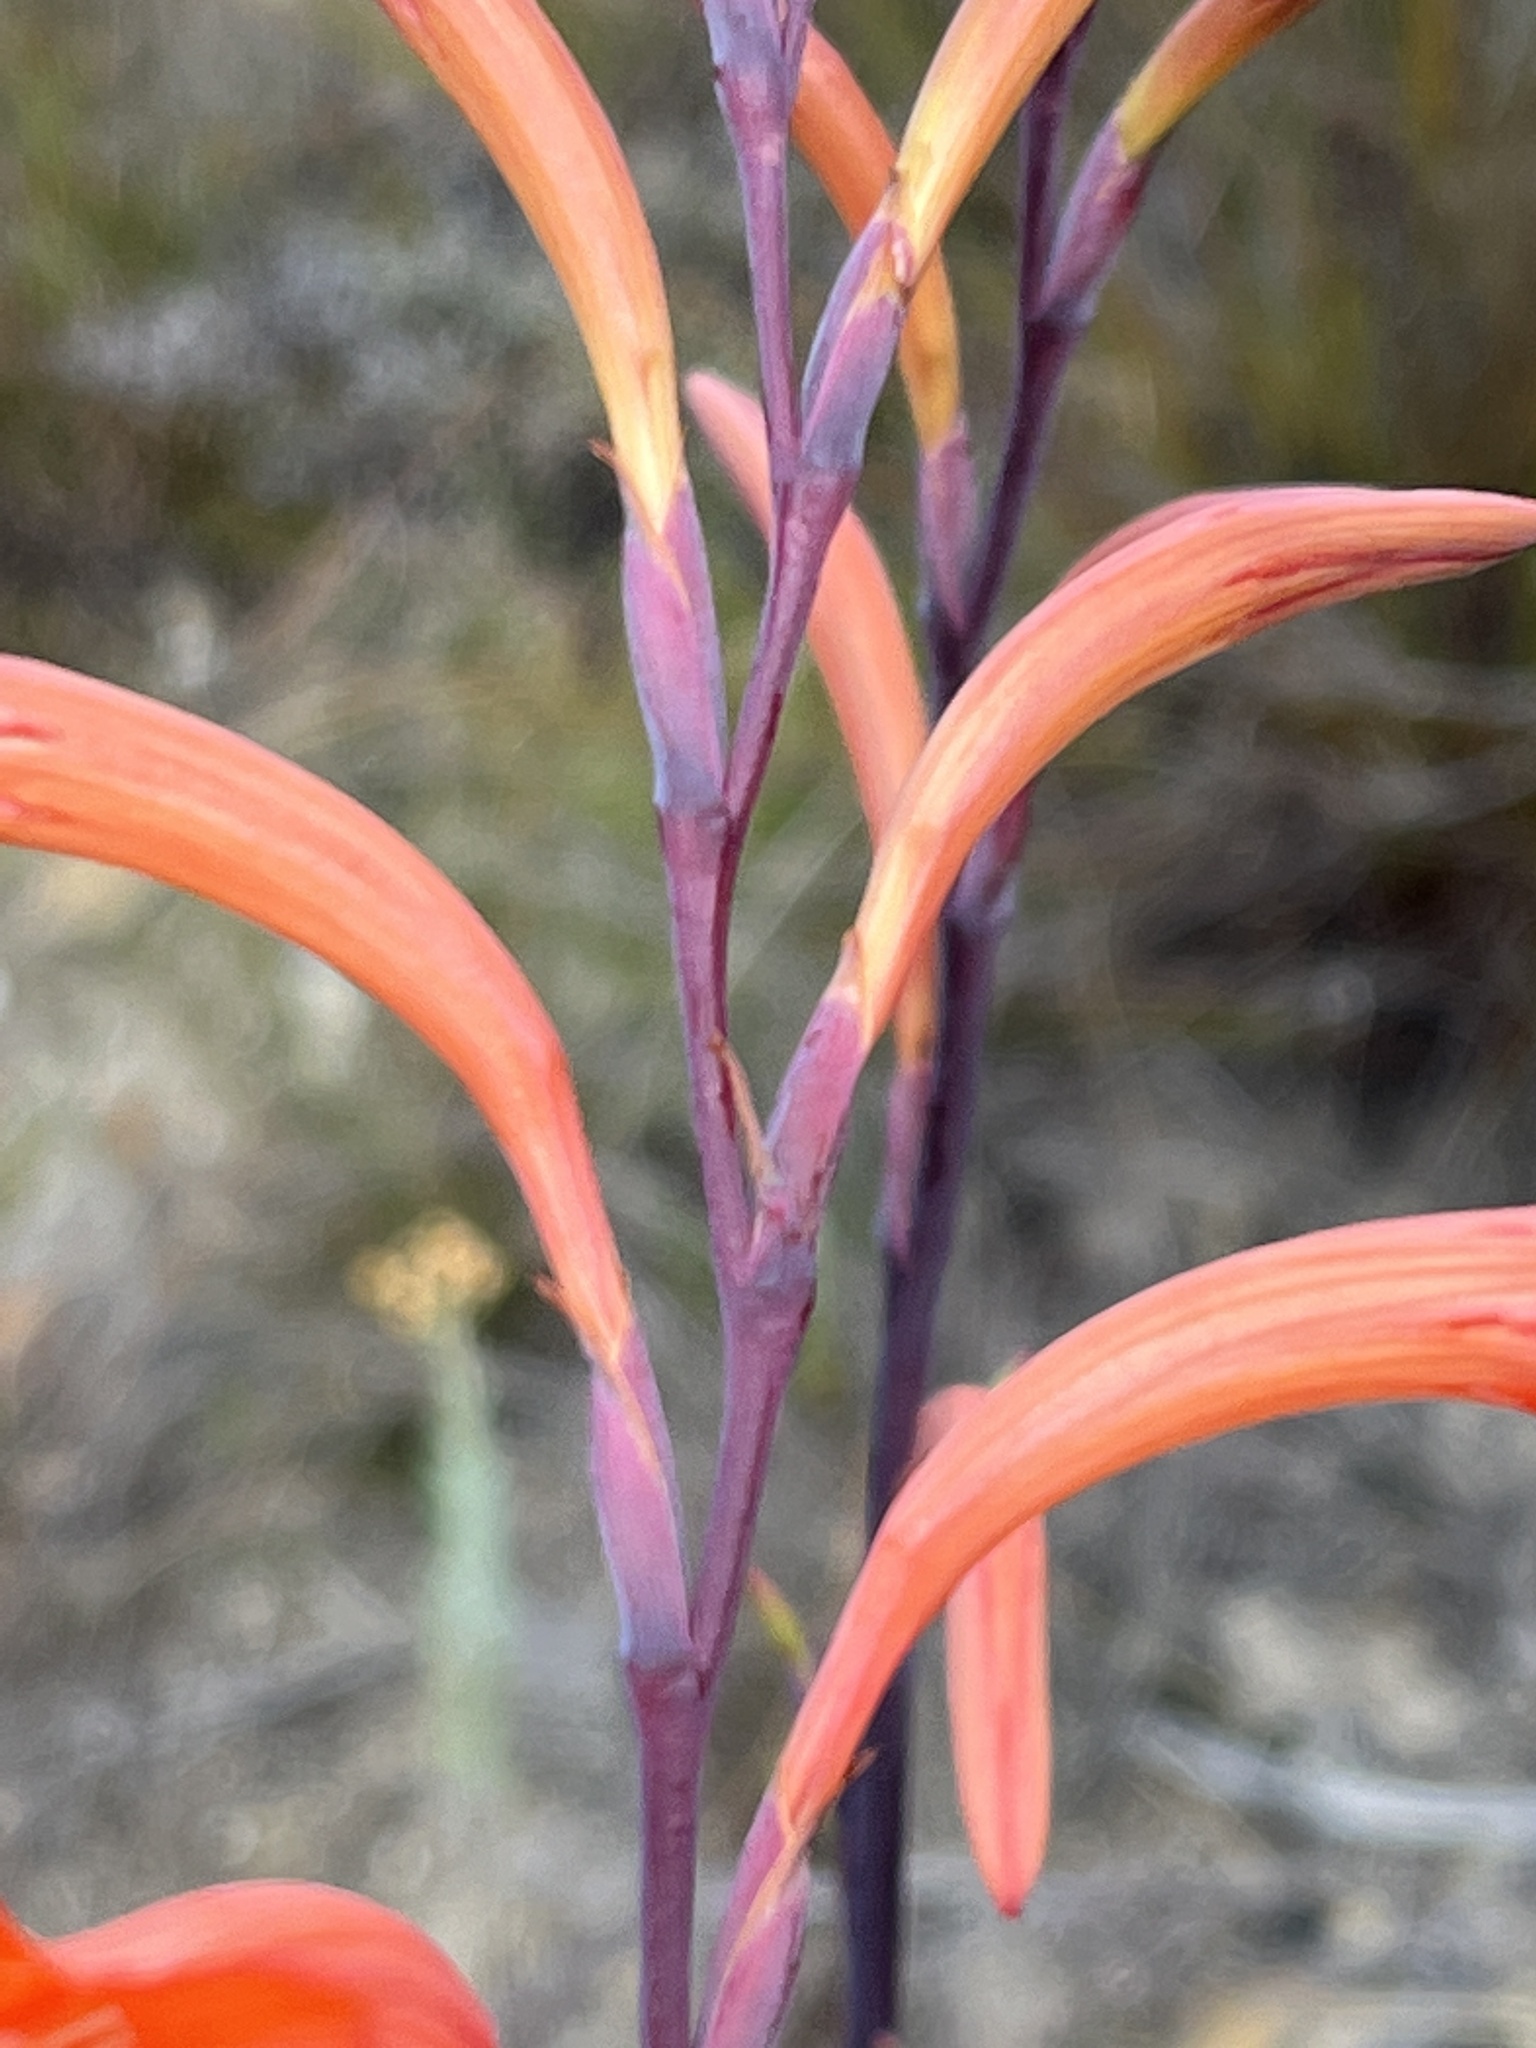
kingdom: Plantae
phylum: Tracheophyta
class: Liliopsida
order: Asparagales
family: Iridaceae
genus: Watsonia
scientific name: Watsonia schlechteri
